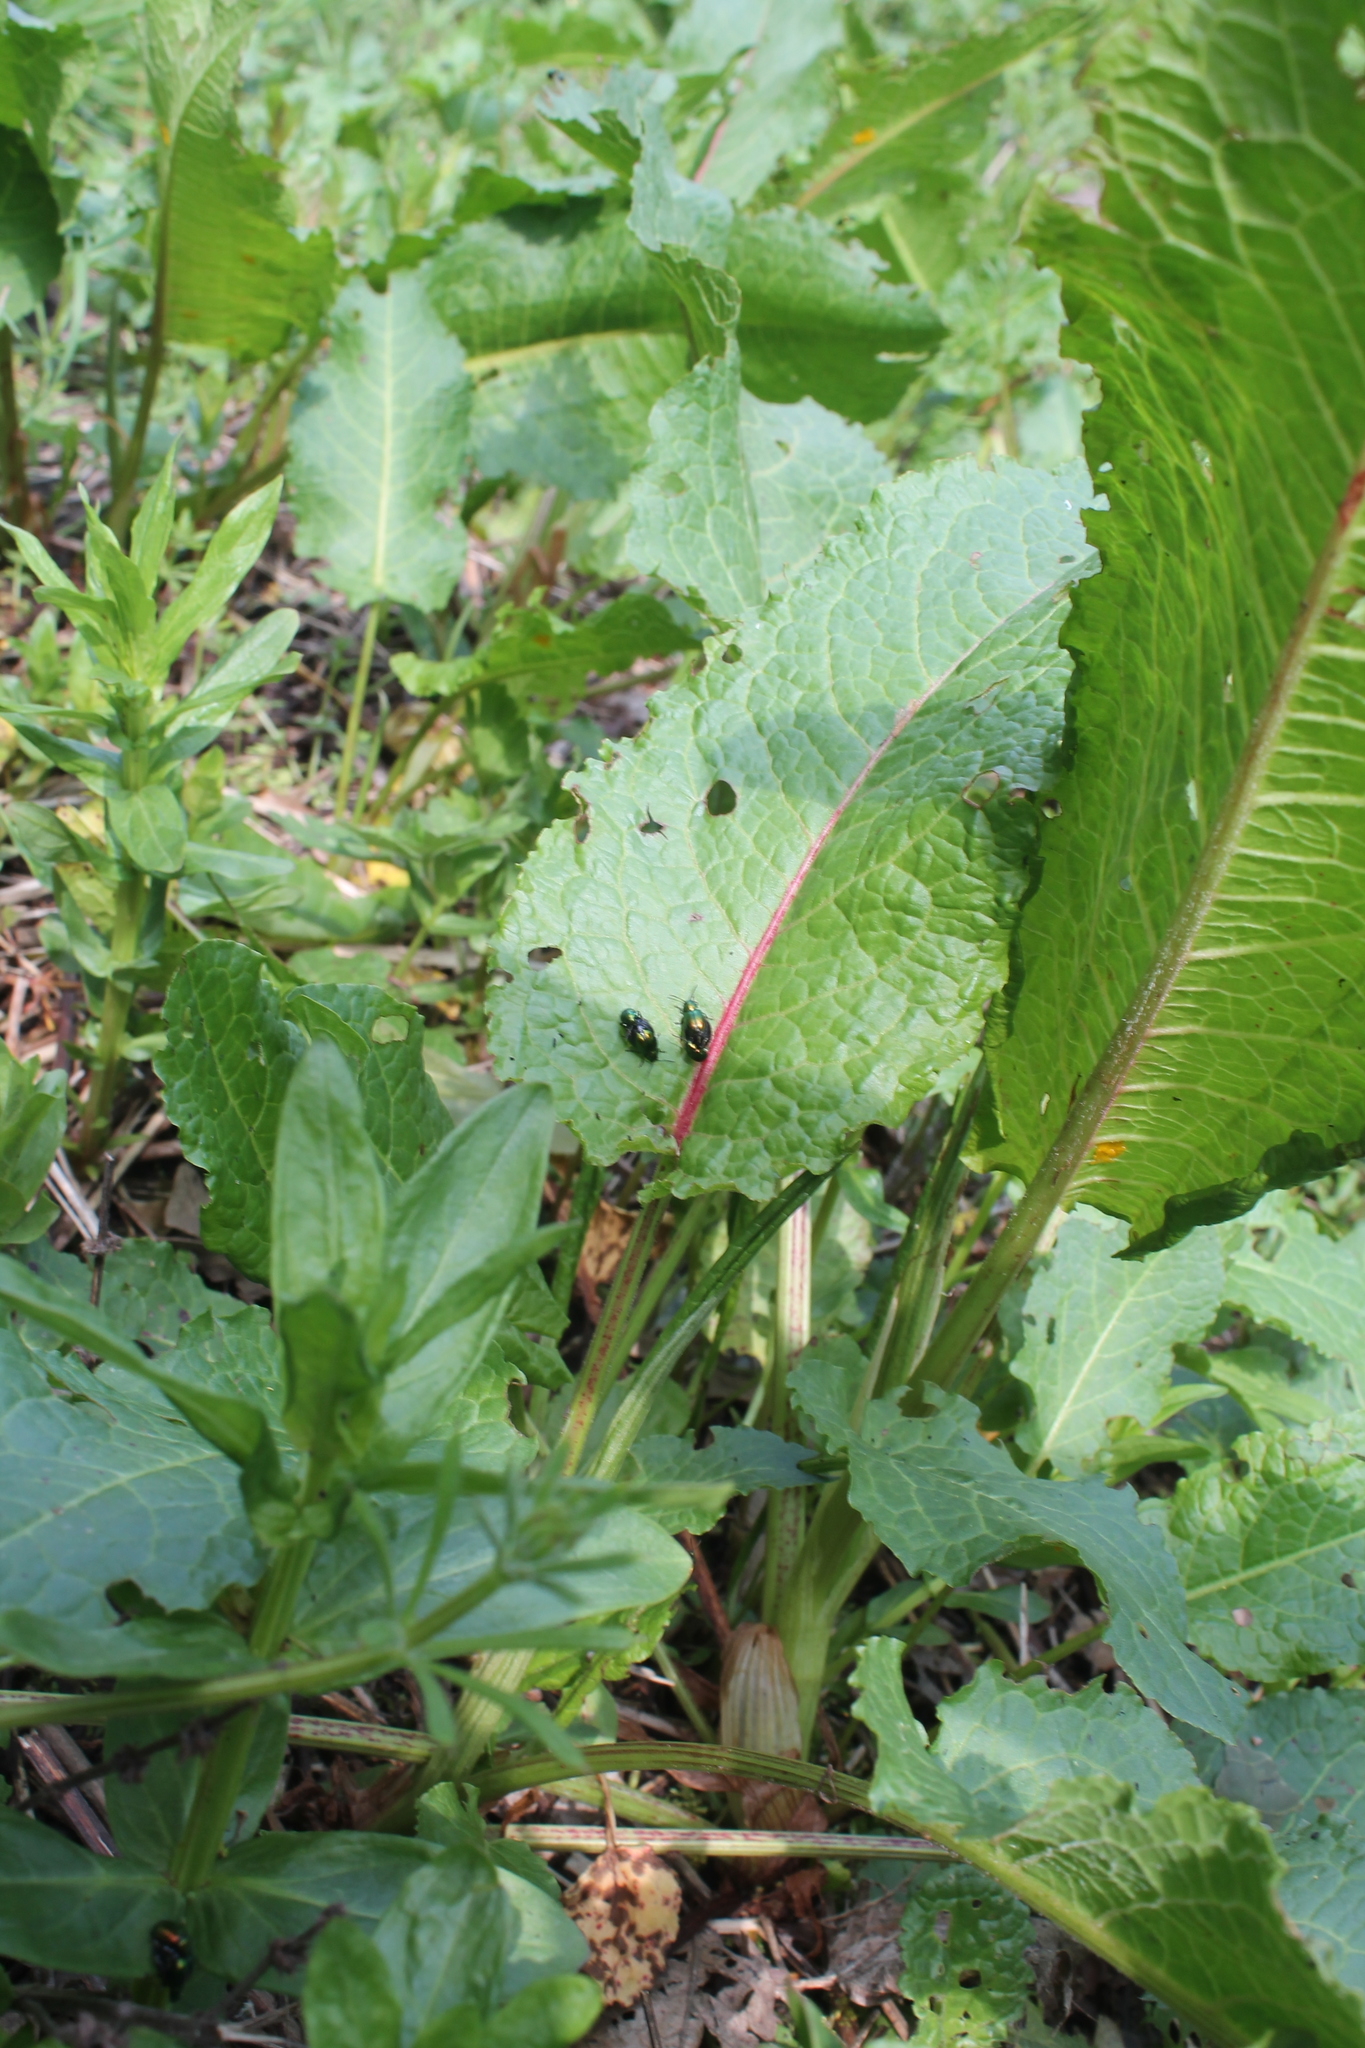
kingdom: Animalia
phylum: Arthropoda
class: Insecta
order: Coleoptera
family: Chrysomelidae
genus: Gastrophysa
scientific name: Gastrophysa viridula
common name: Green dock beetle
